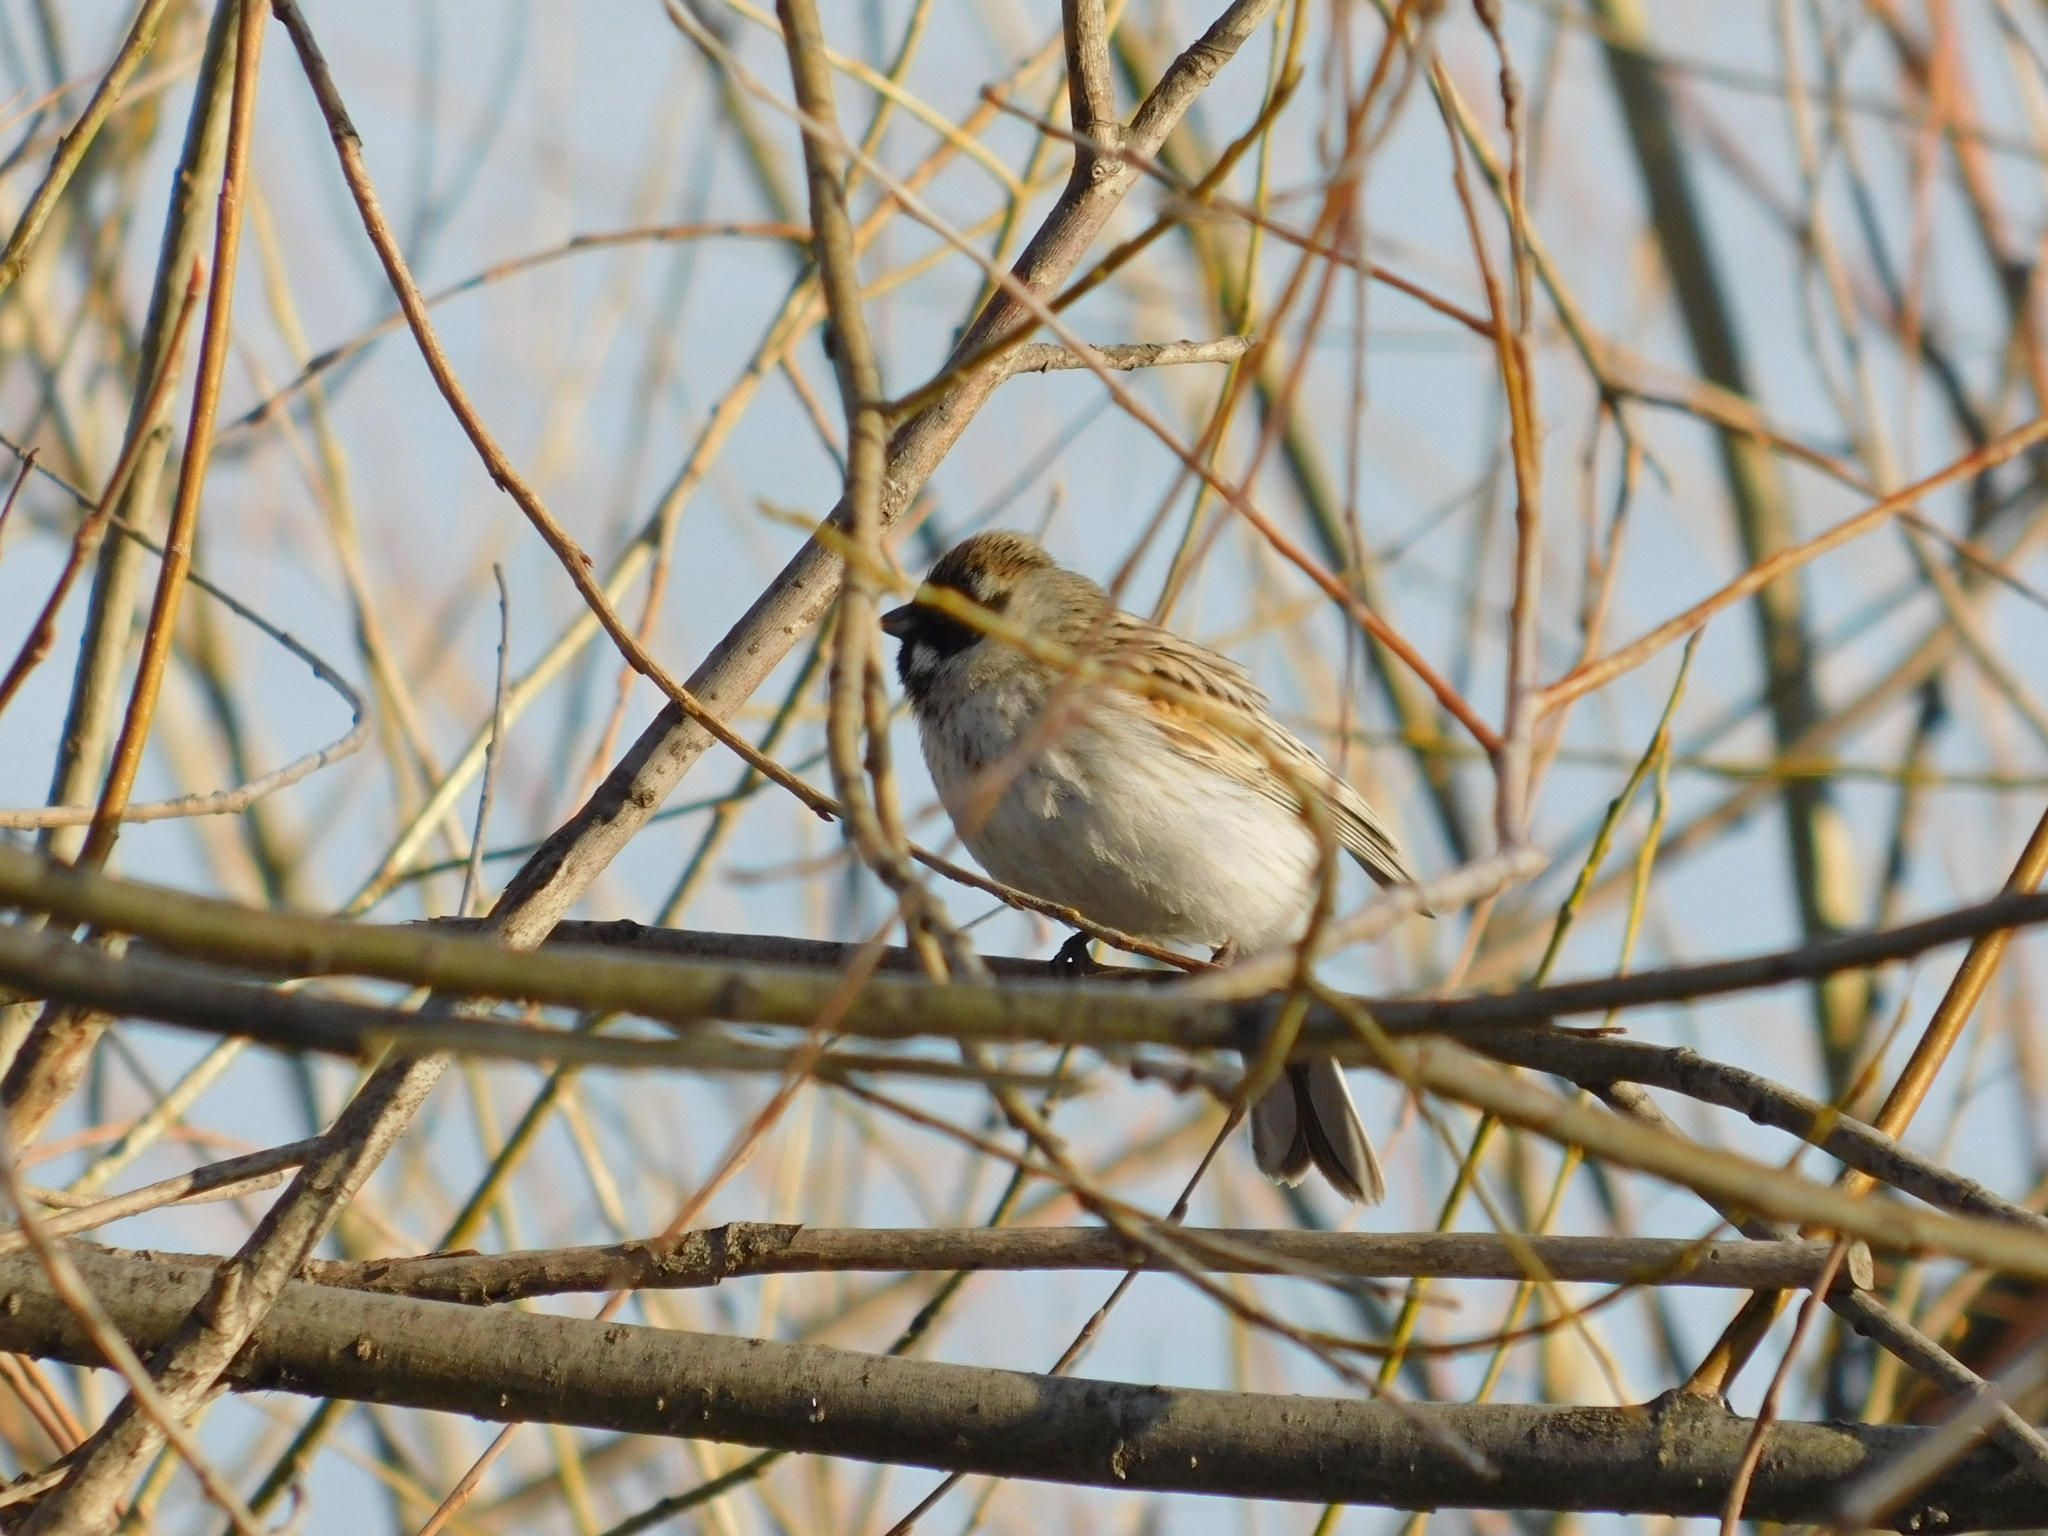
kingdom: Animalia
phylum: Chordata
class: Aves
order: Passeriformes
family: Emberizidae
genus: Emberiza
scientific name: Emberiza schoeniclus
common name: Reed bunting
